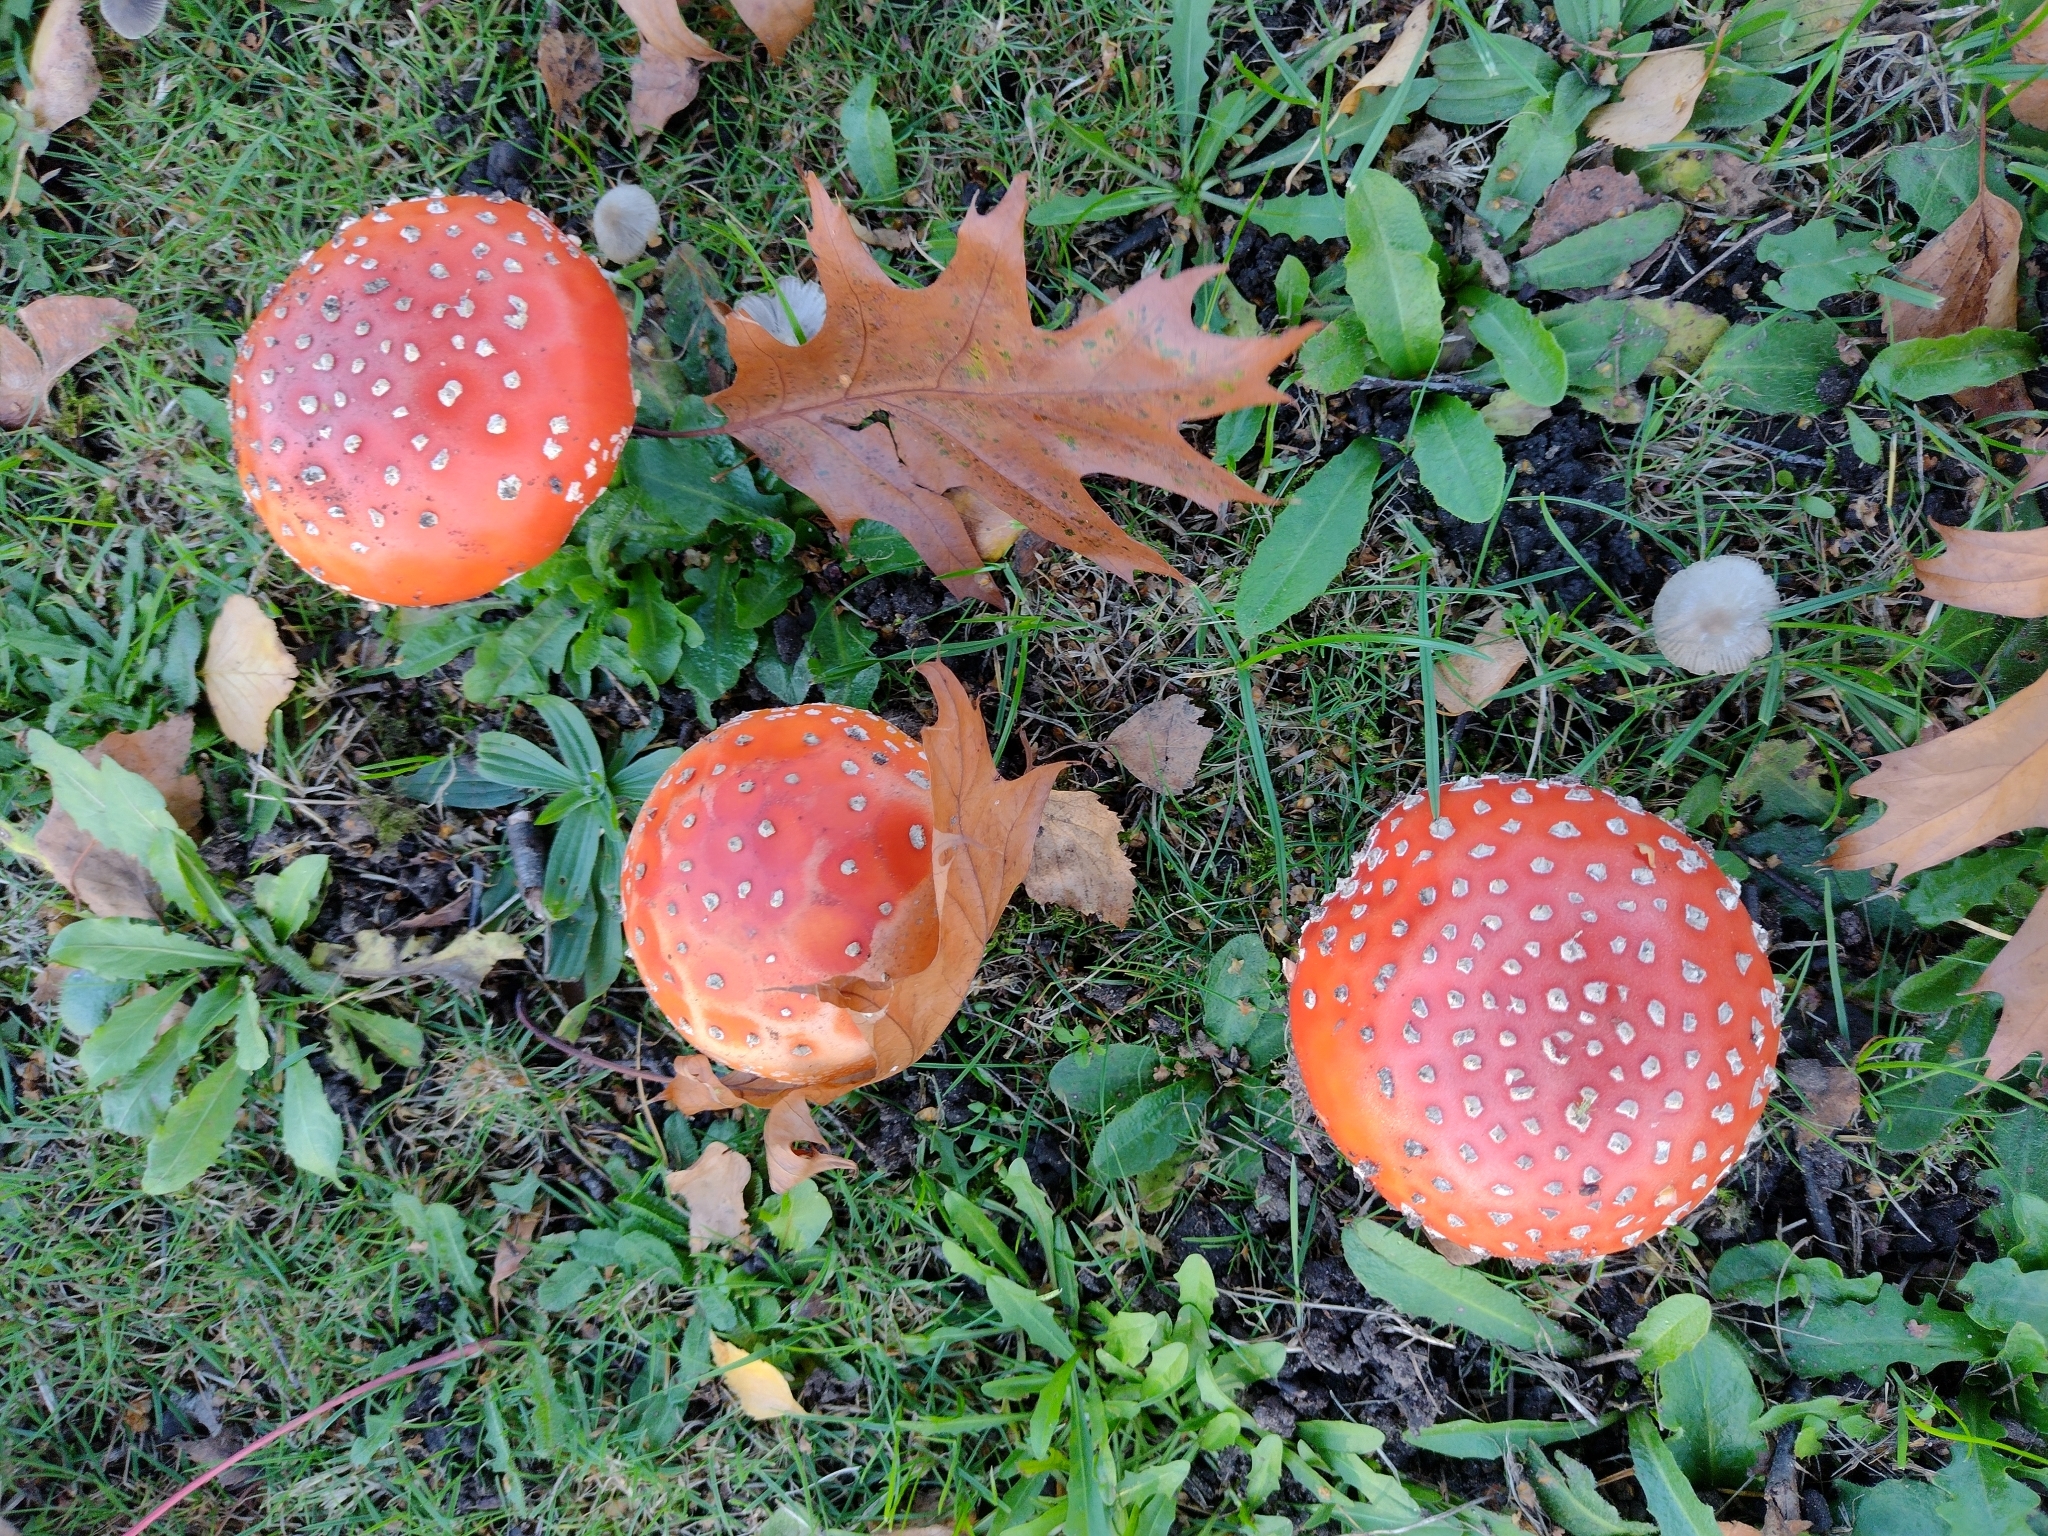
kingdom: Fungi
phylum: Basidiomycota
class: Agaricomycetes
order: Agaricales
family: Amanitaceae
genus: Amanita
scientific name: Amanita muscaria
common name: Fly agaric
